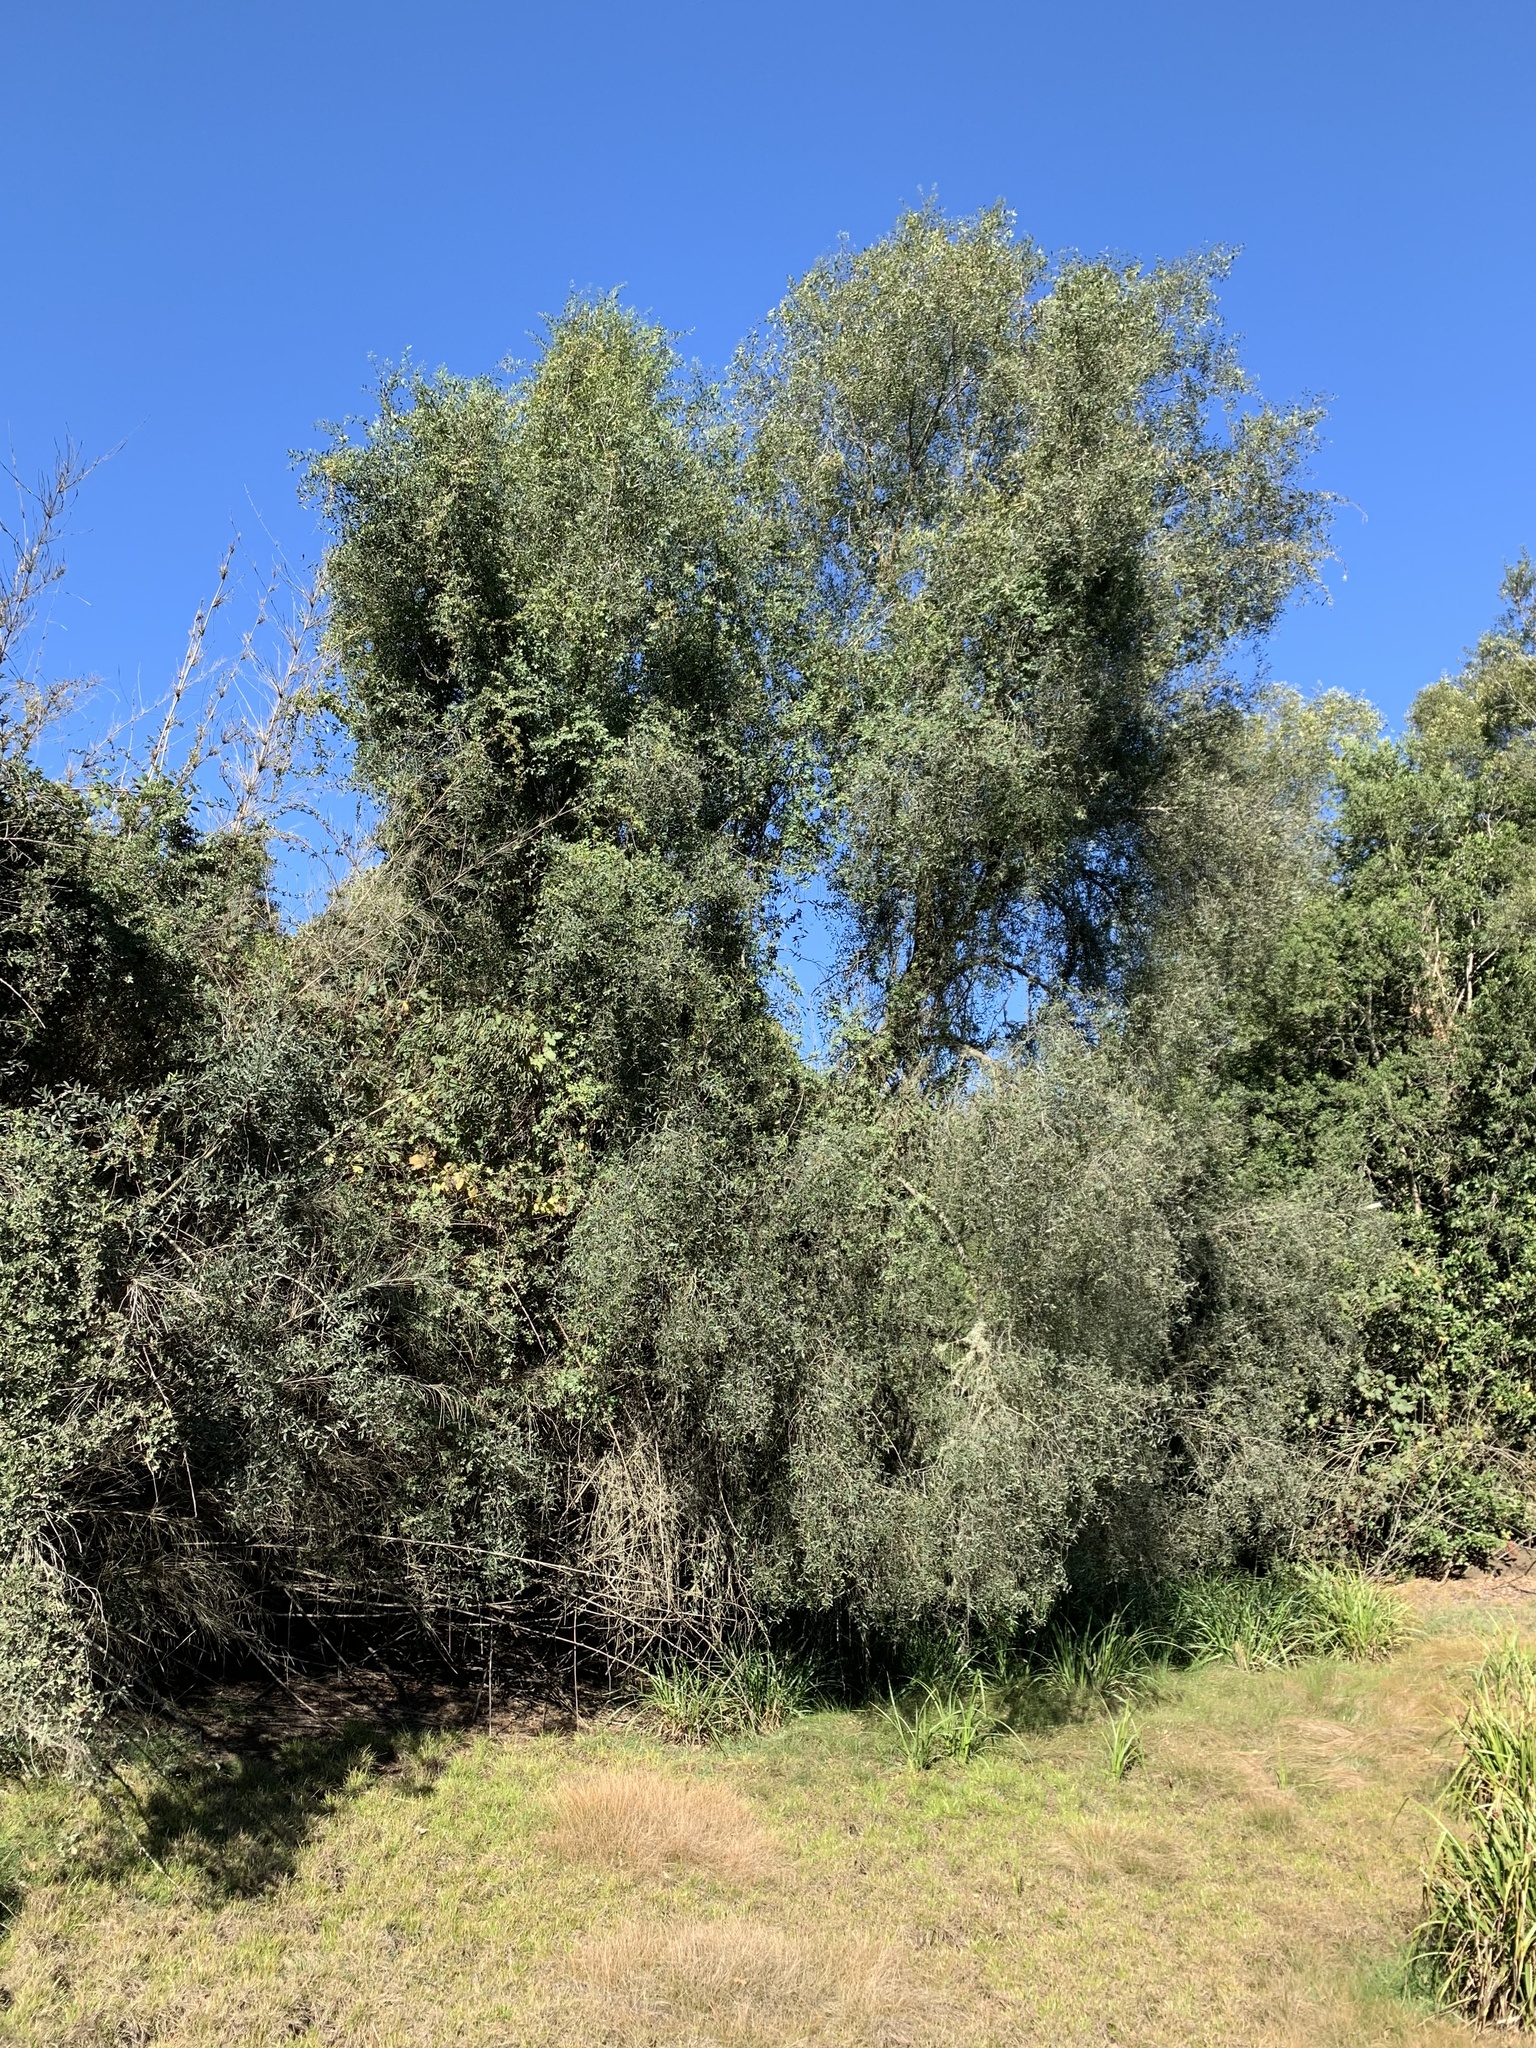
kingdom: Plantae
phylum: Tracheophyta
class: Magnoliopsida
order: Celastrales
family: Celastraceae
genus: Maytenus
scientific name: Maytenus boaria
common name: Mayten
